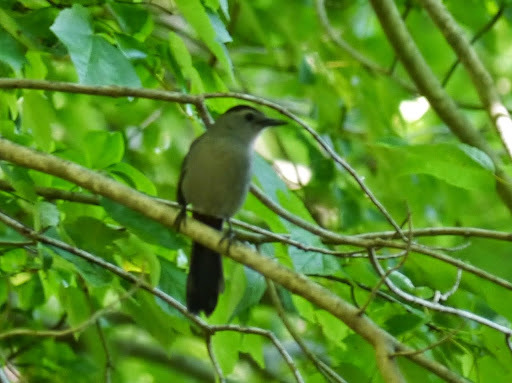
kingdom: Animalia
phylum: Chordata
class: Aves
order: Passeriformes
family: Mimidae
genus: Dumetella
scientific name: Dumetella carolinensis
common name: Gray catbird
